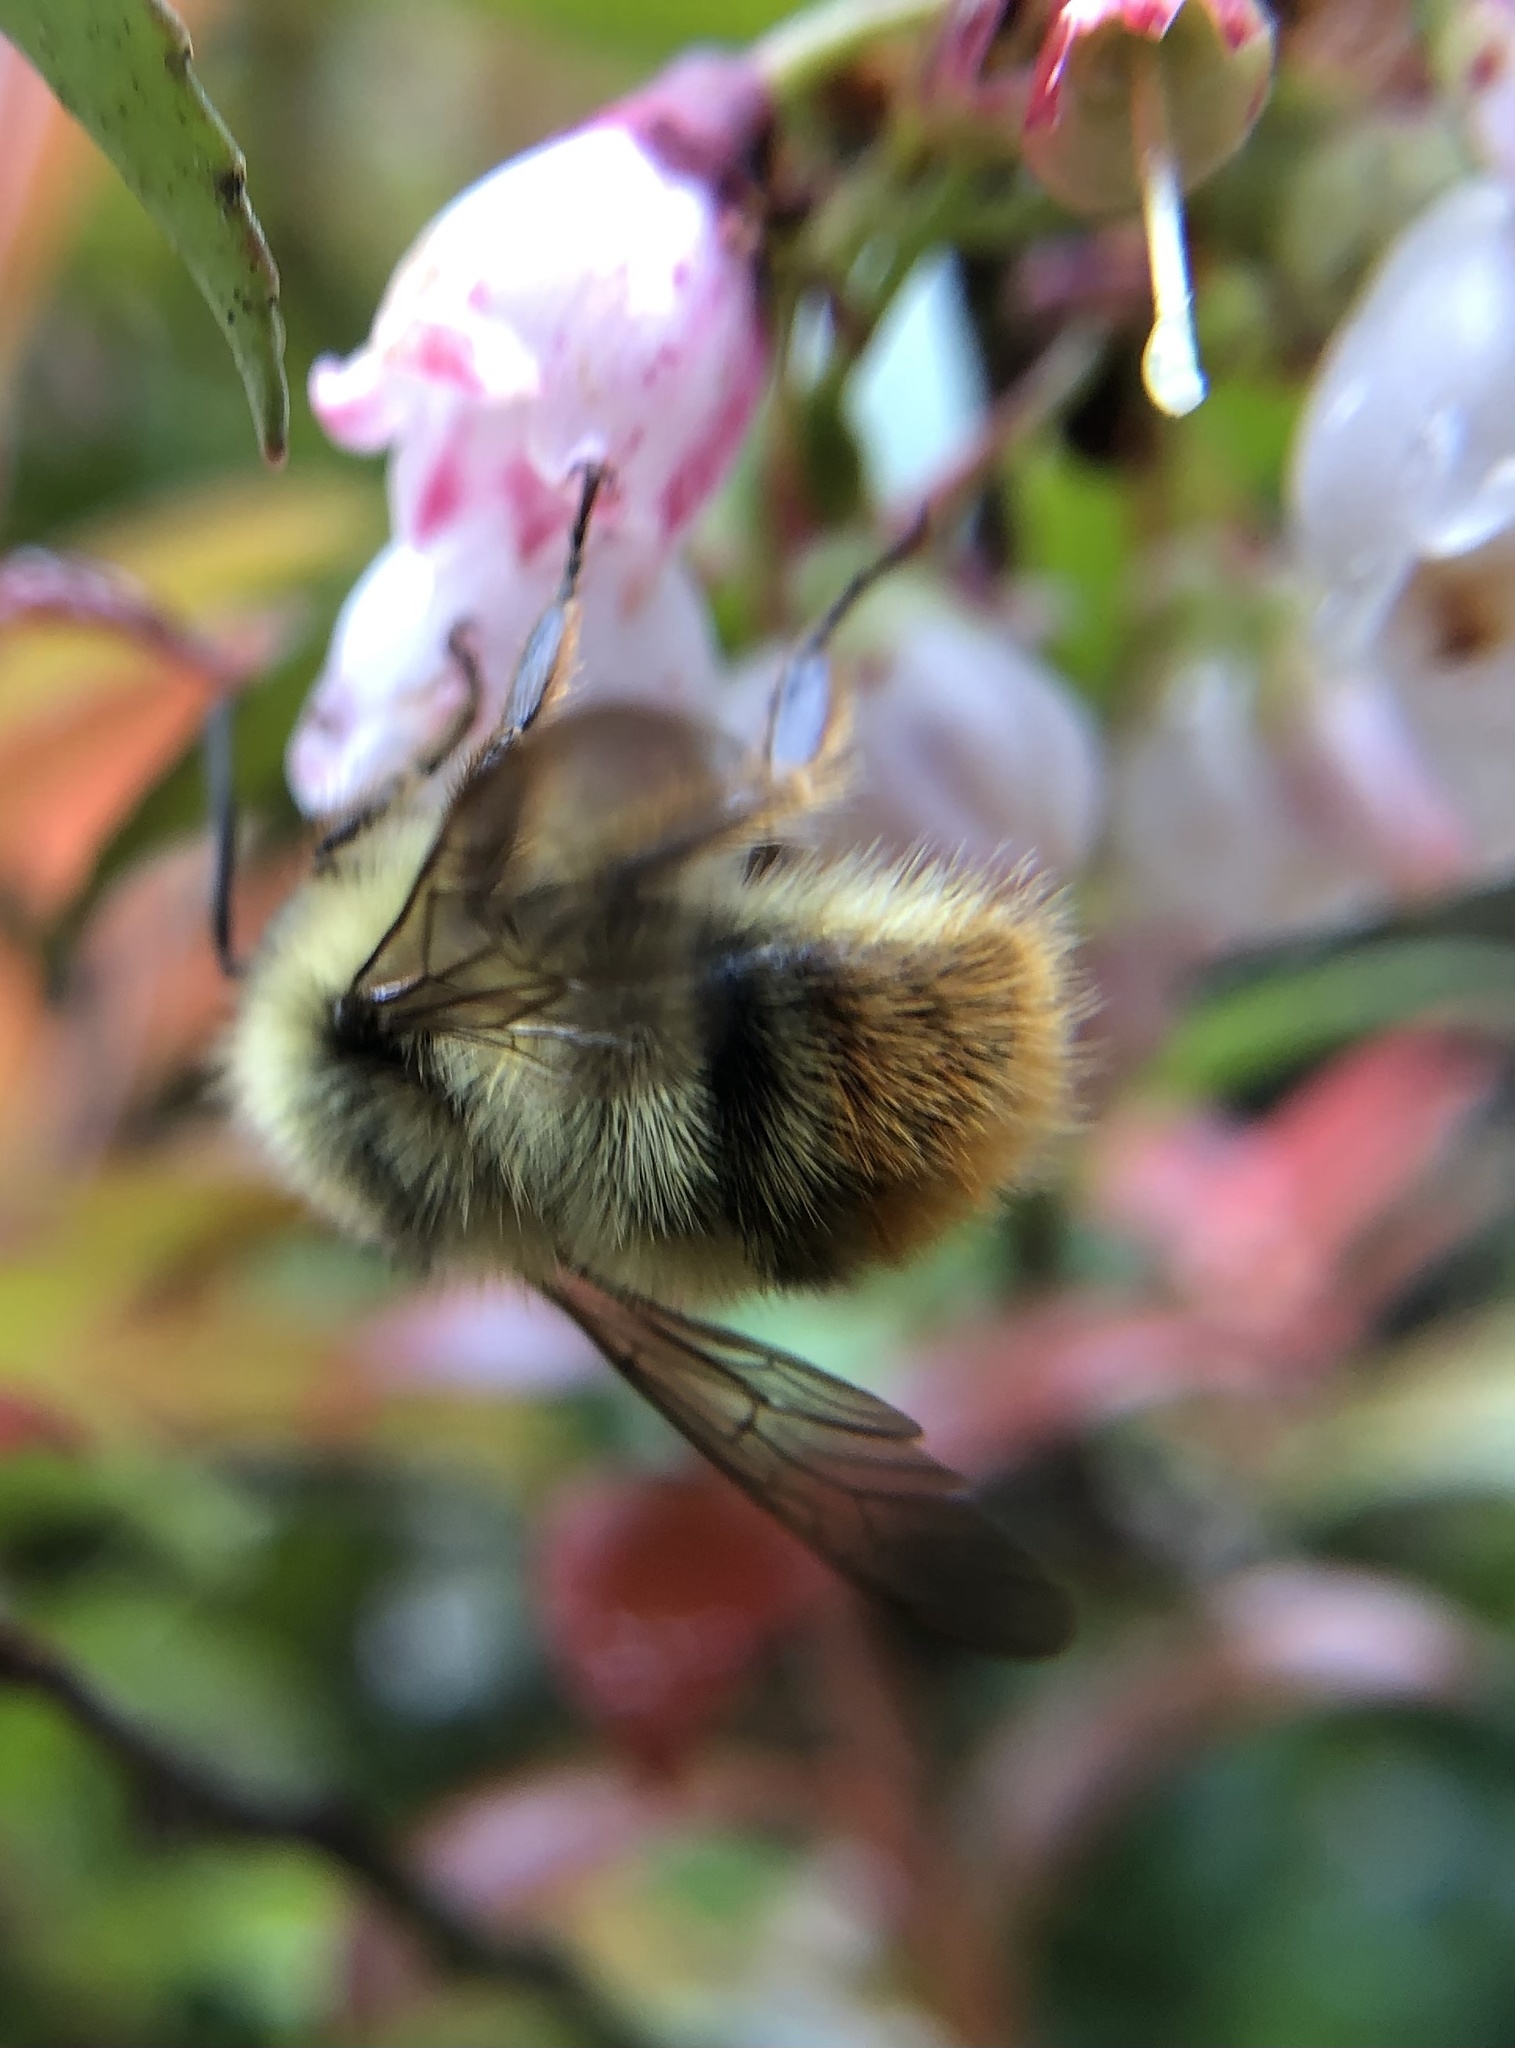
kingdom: Animalia
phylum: Arthropoda
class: Insecta
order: Hymenoptera
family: Apidae
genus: Bombus
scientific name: Bombus mixtus
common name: Fuzzy-horned bumble bee
